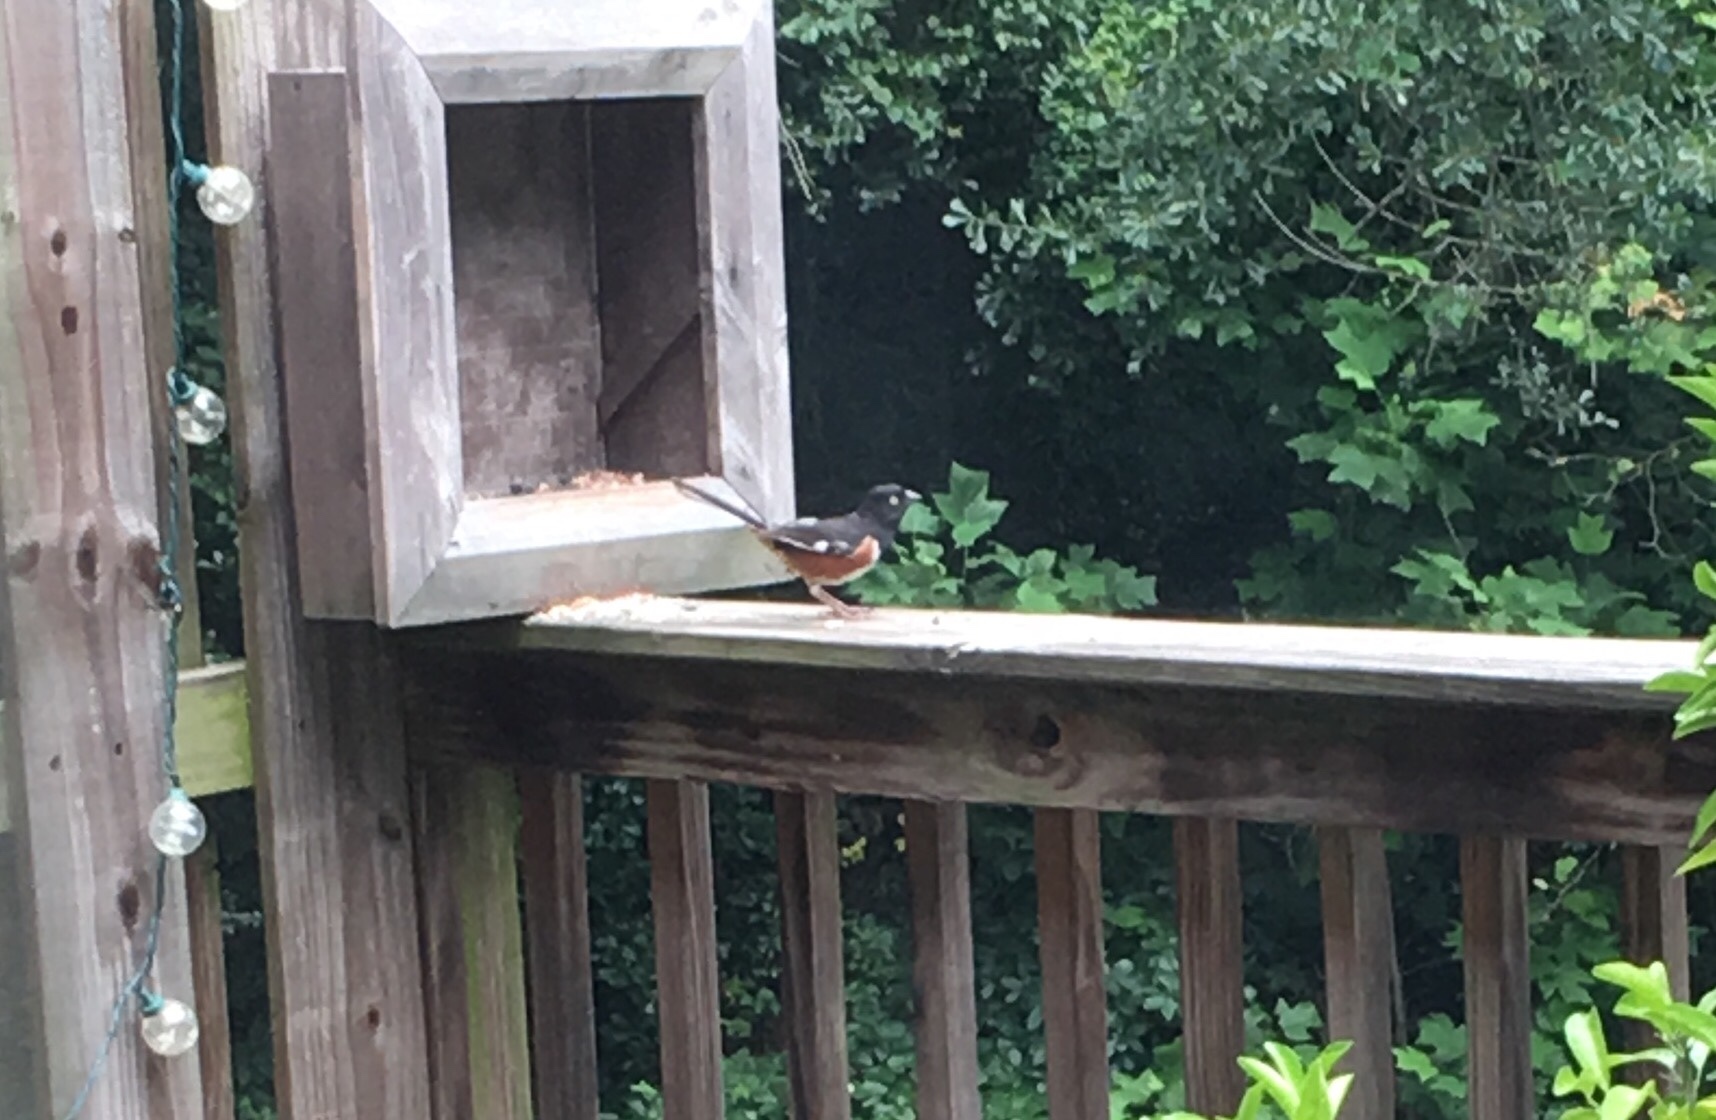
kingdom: Animalia
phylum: Chordata
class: Aves
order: Passeriformes
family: Passerellidae
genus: Pipilo
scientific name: Pipilo erythrophthalmus
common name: Eastern towhee
